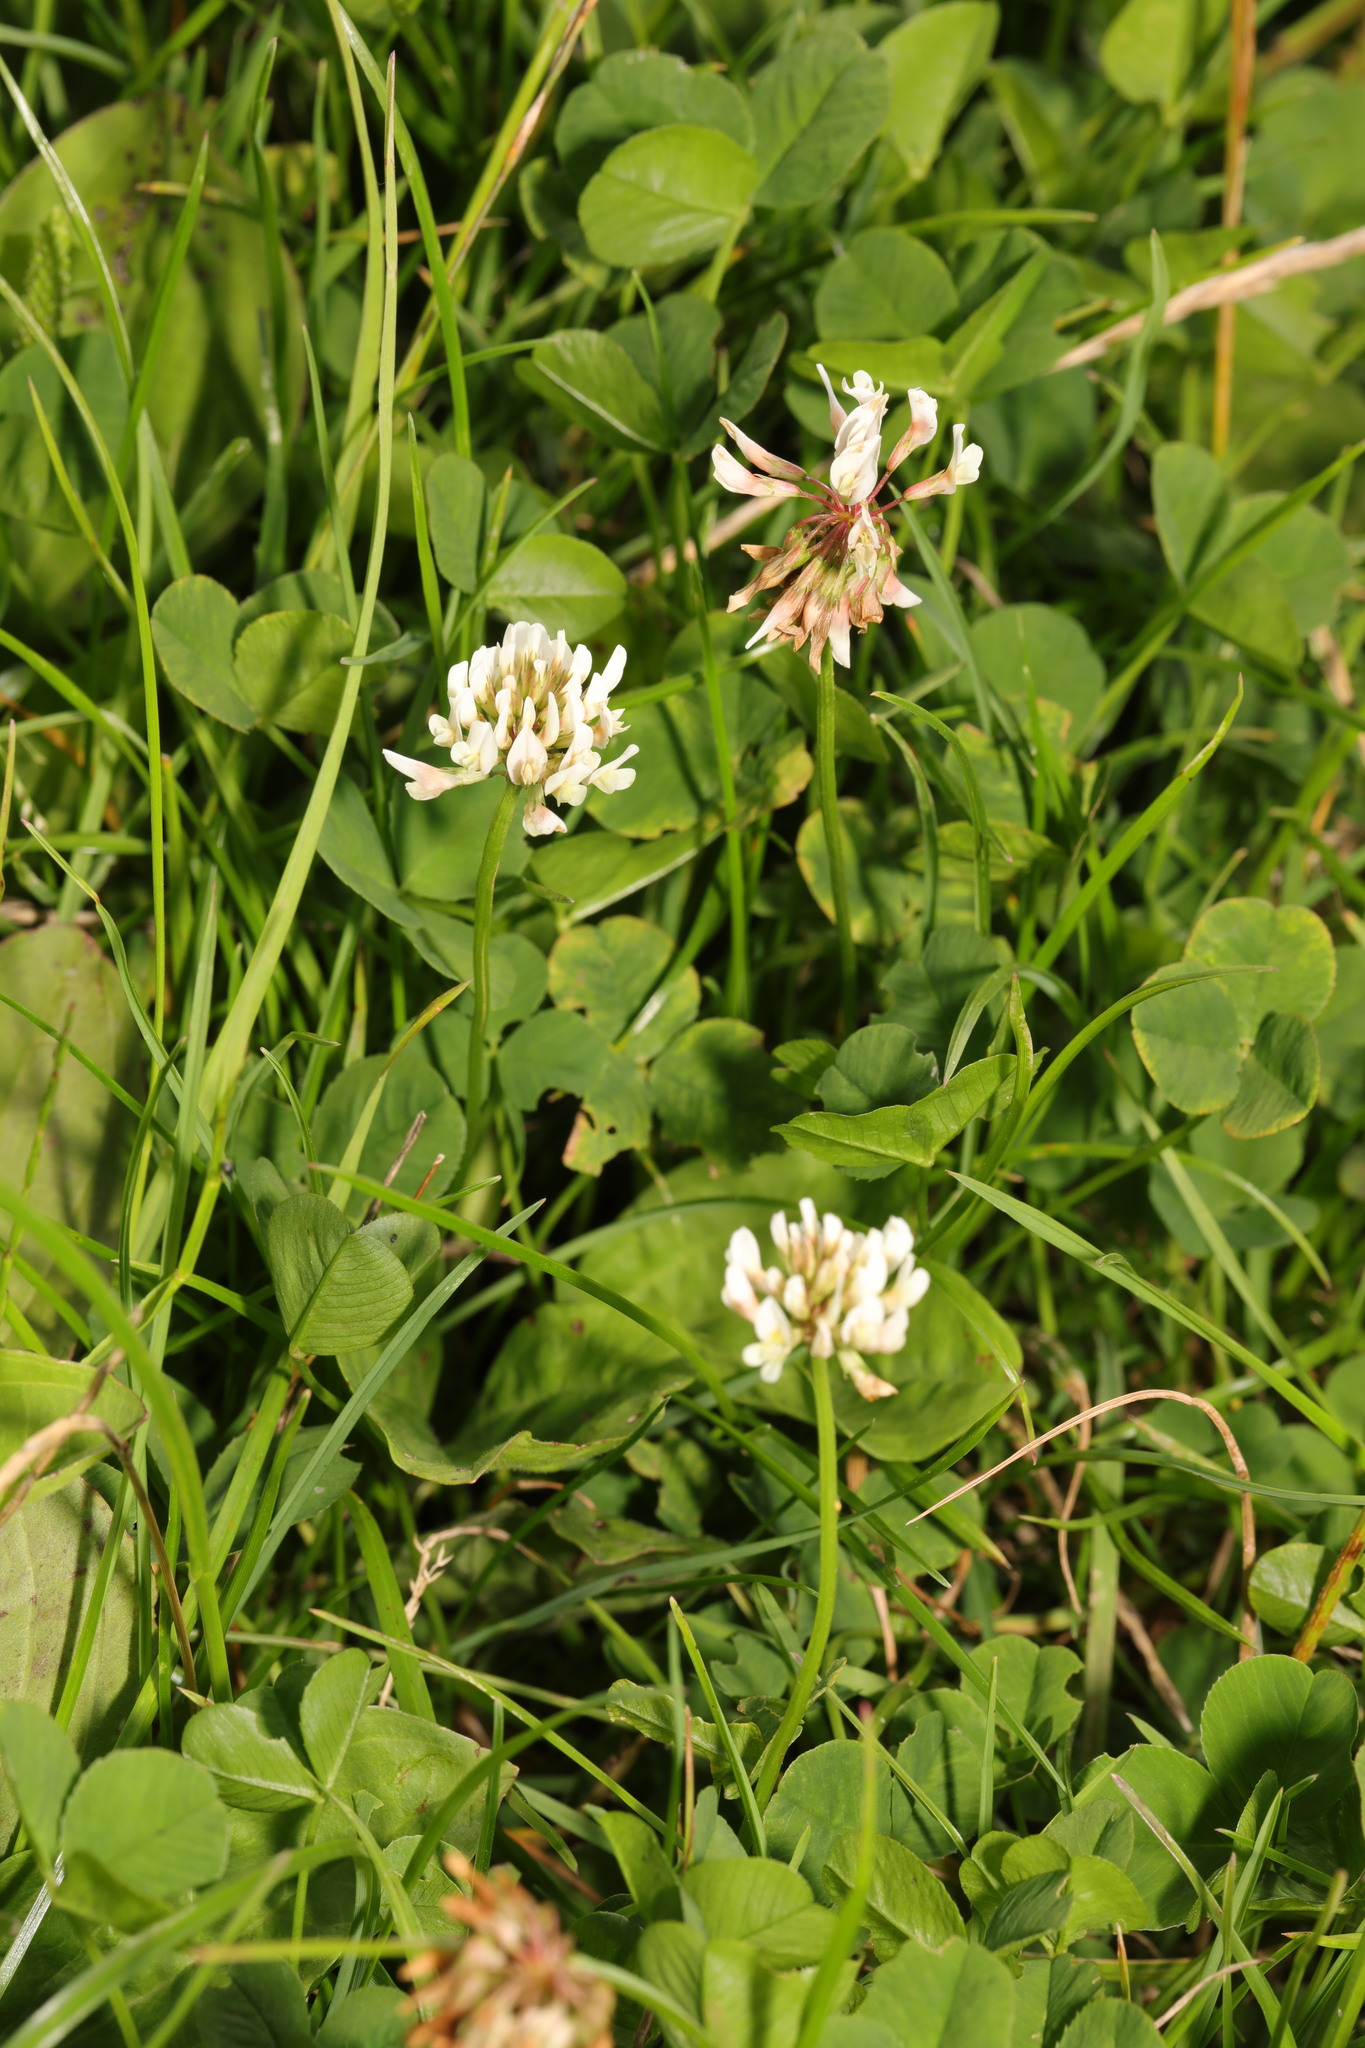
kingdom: Plantae
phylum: Tracheophyta
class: Magnoliopsida
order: Fabales
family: Fabaceae
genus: Trifolium
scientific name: Trifolium repens
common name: White clover
